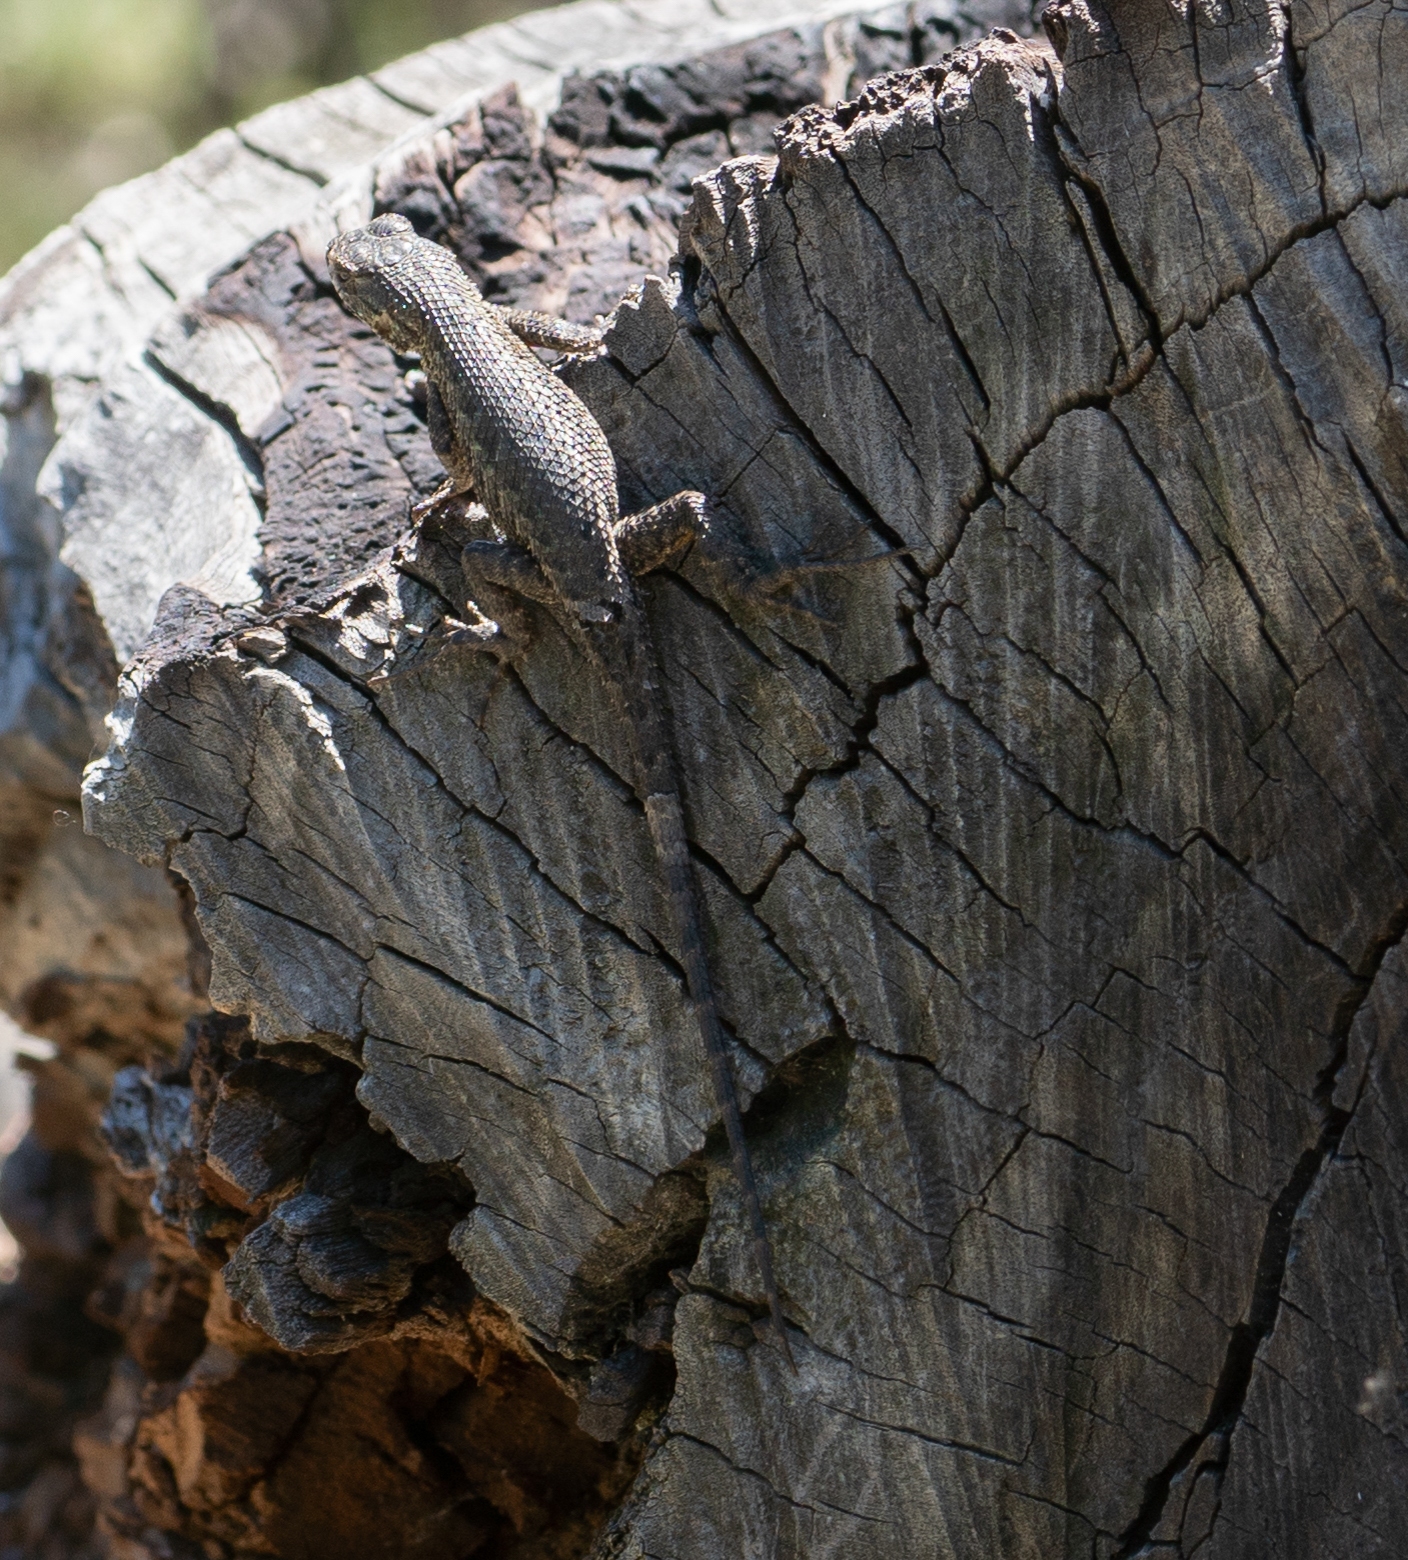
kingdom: Animalia
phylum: Chordata
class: Squamata
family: Phrynosomatidae
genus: Sceloporus
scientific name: Sceloporus occidentalis
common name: Western fence lizard
